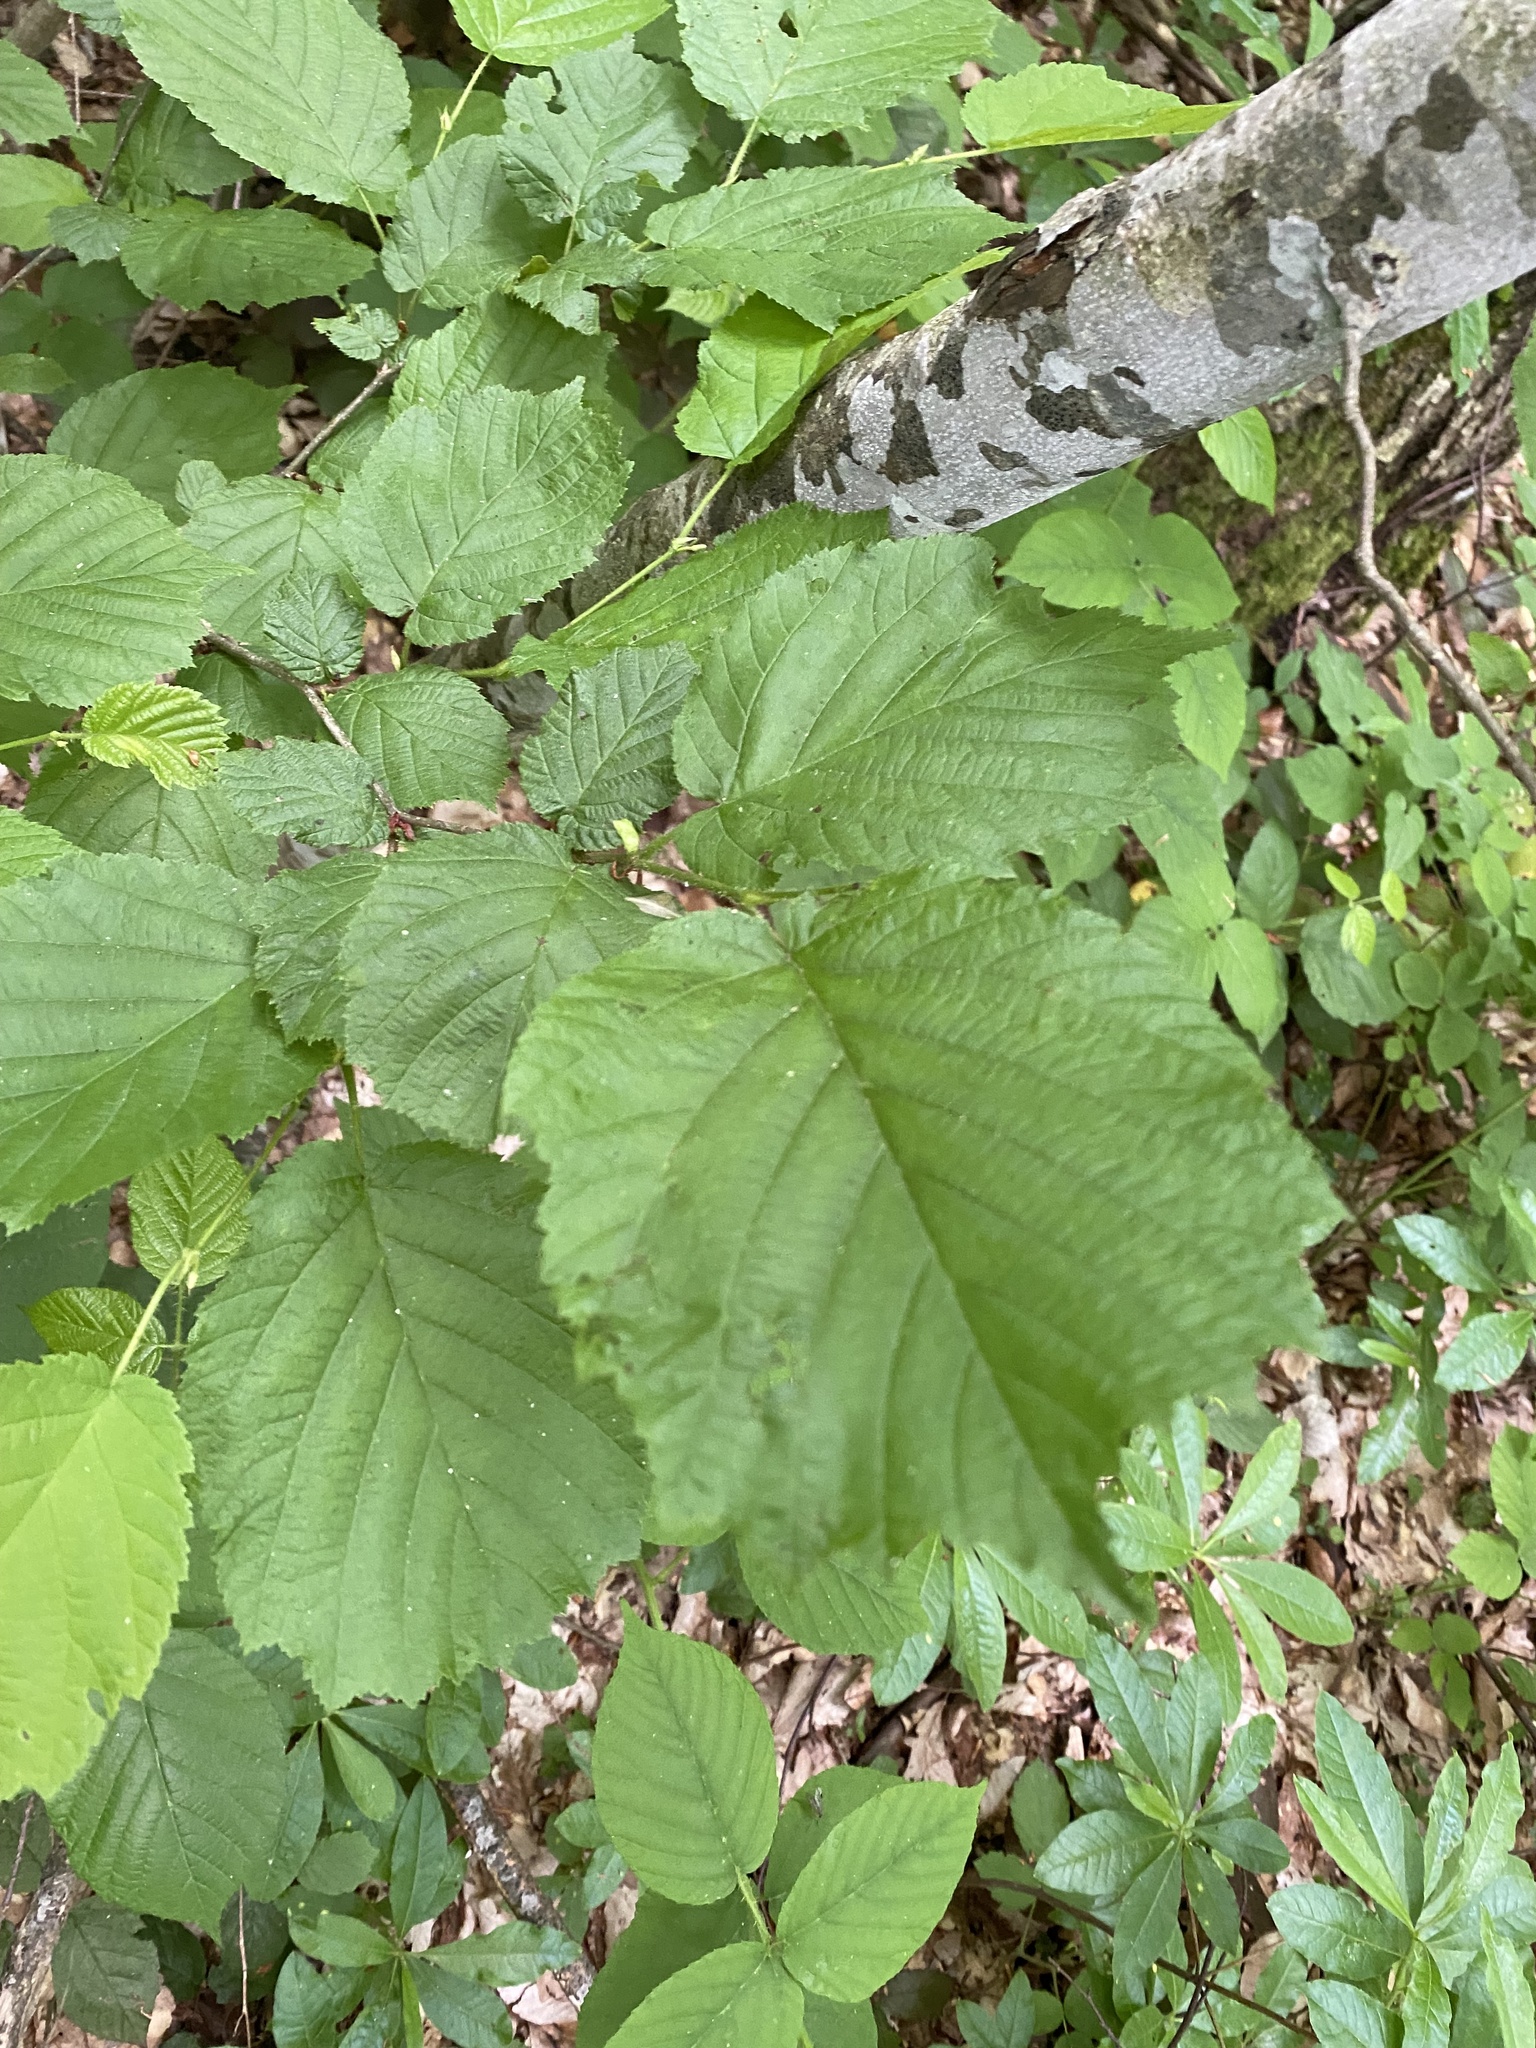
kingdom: Plantae
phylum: Tracheophyta
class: Magnoliopsida
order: Fagales
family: Betulaceae
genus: Corylus
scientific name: Corylus avellana
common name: European hazel
